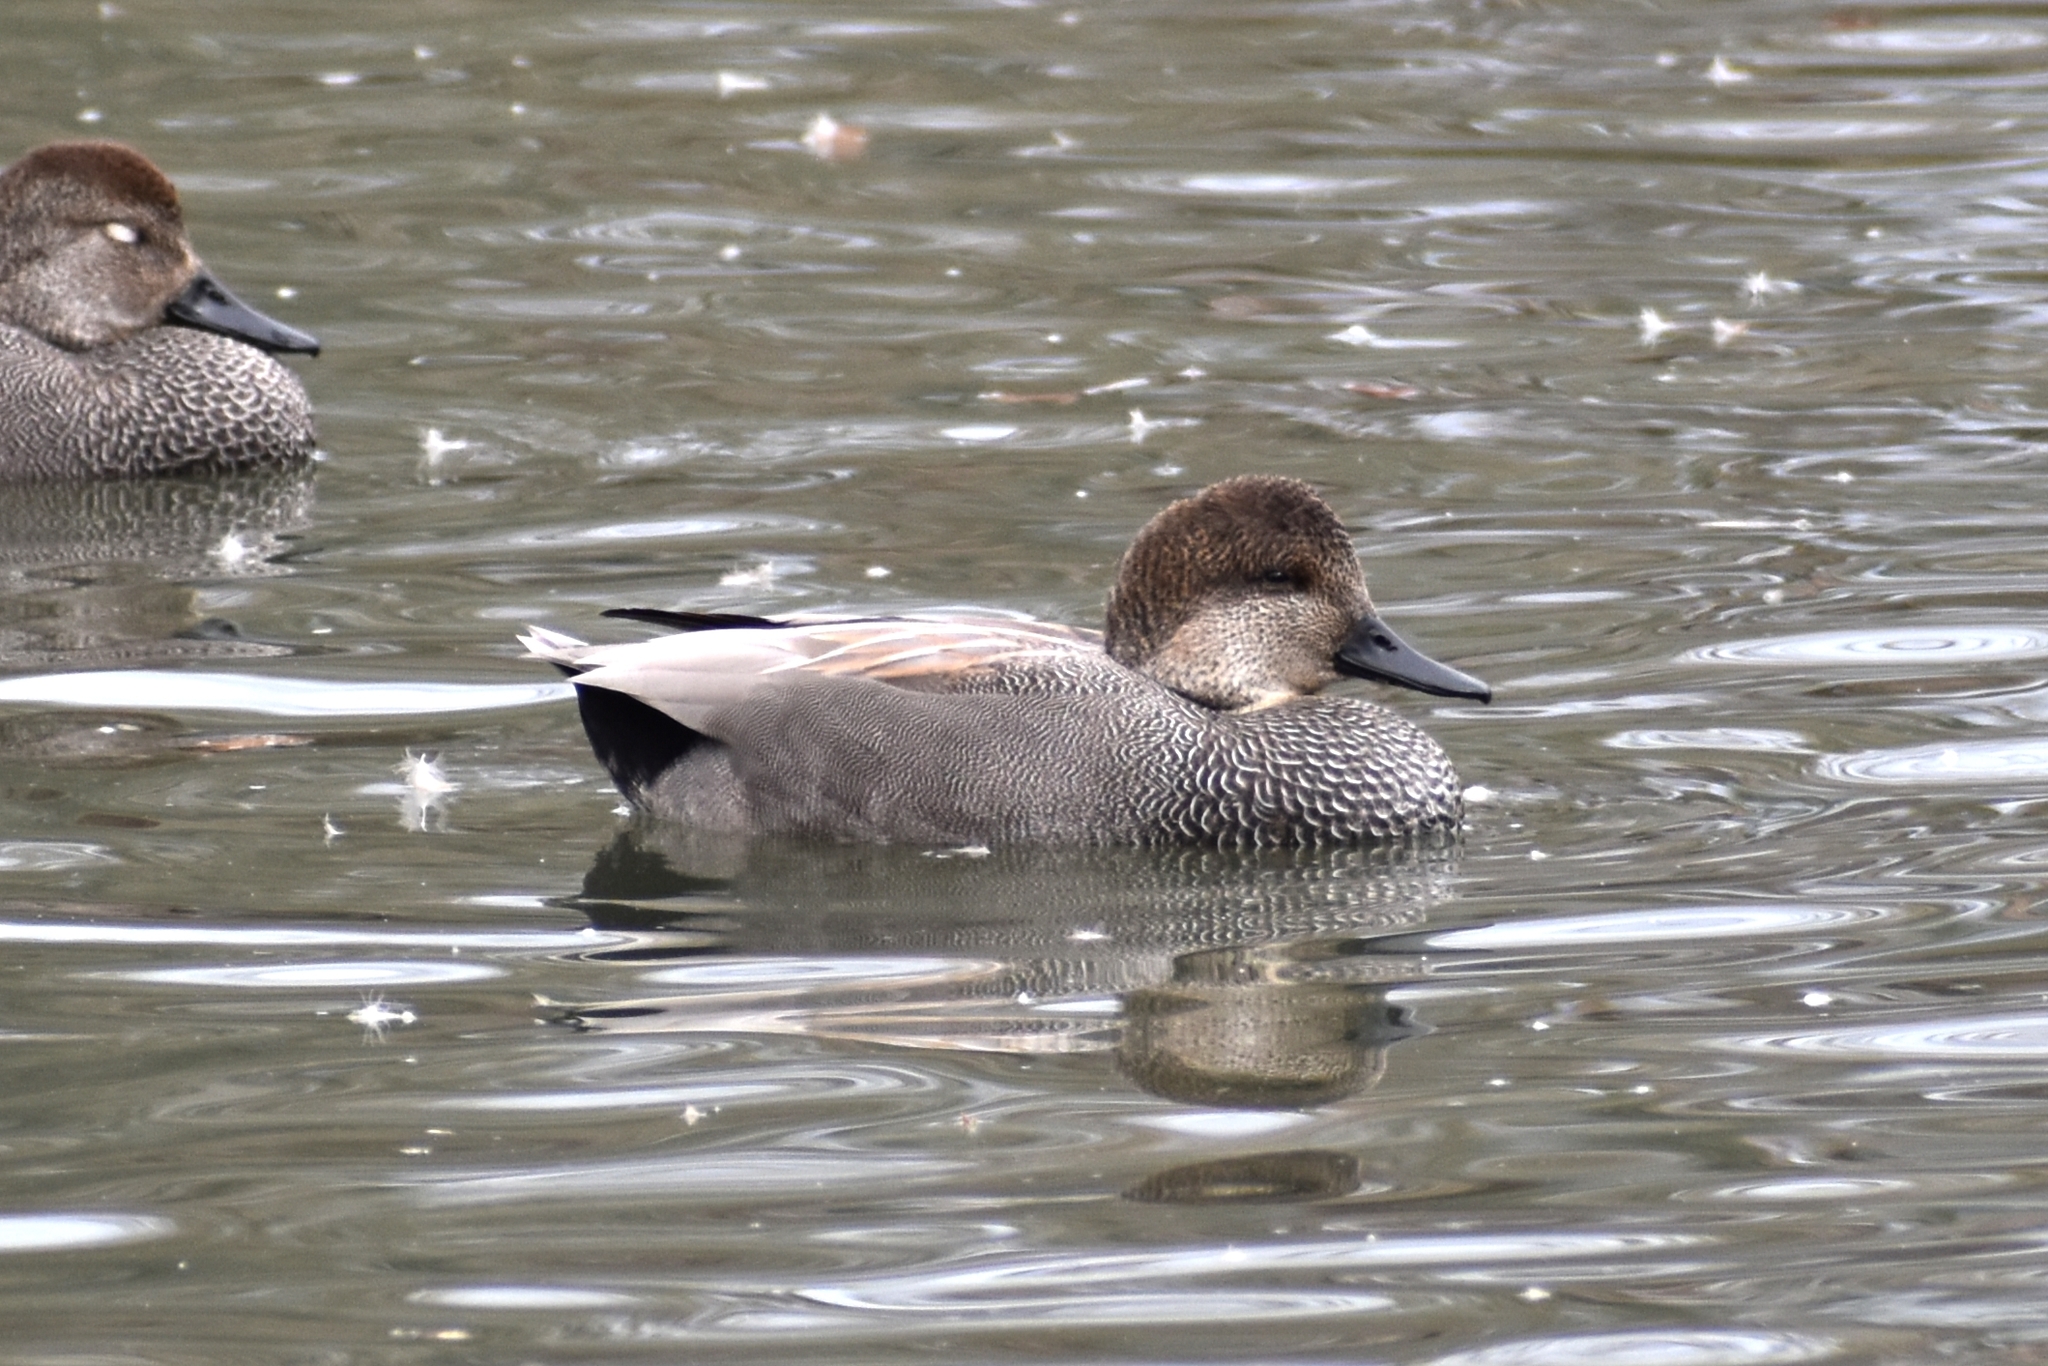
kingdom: Animalia
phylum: Chordata
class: Aves
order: Anseriformes
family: Anatidae
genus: Mareca
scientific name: Mareca strepera
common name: Gadwall
